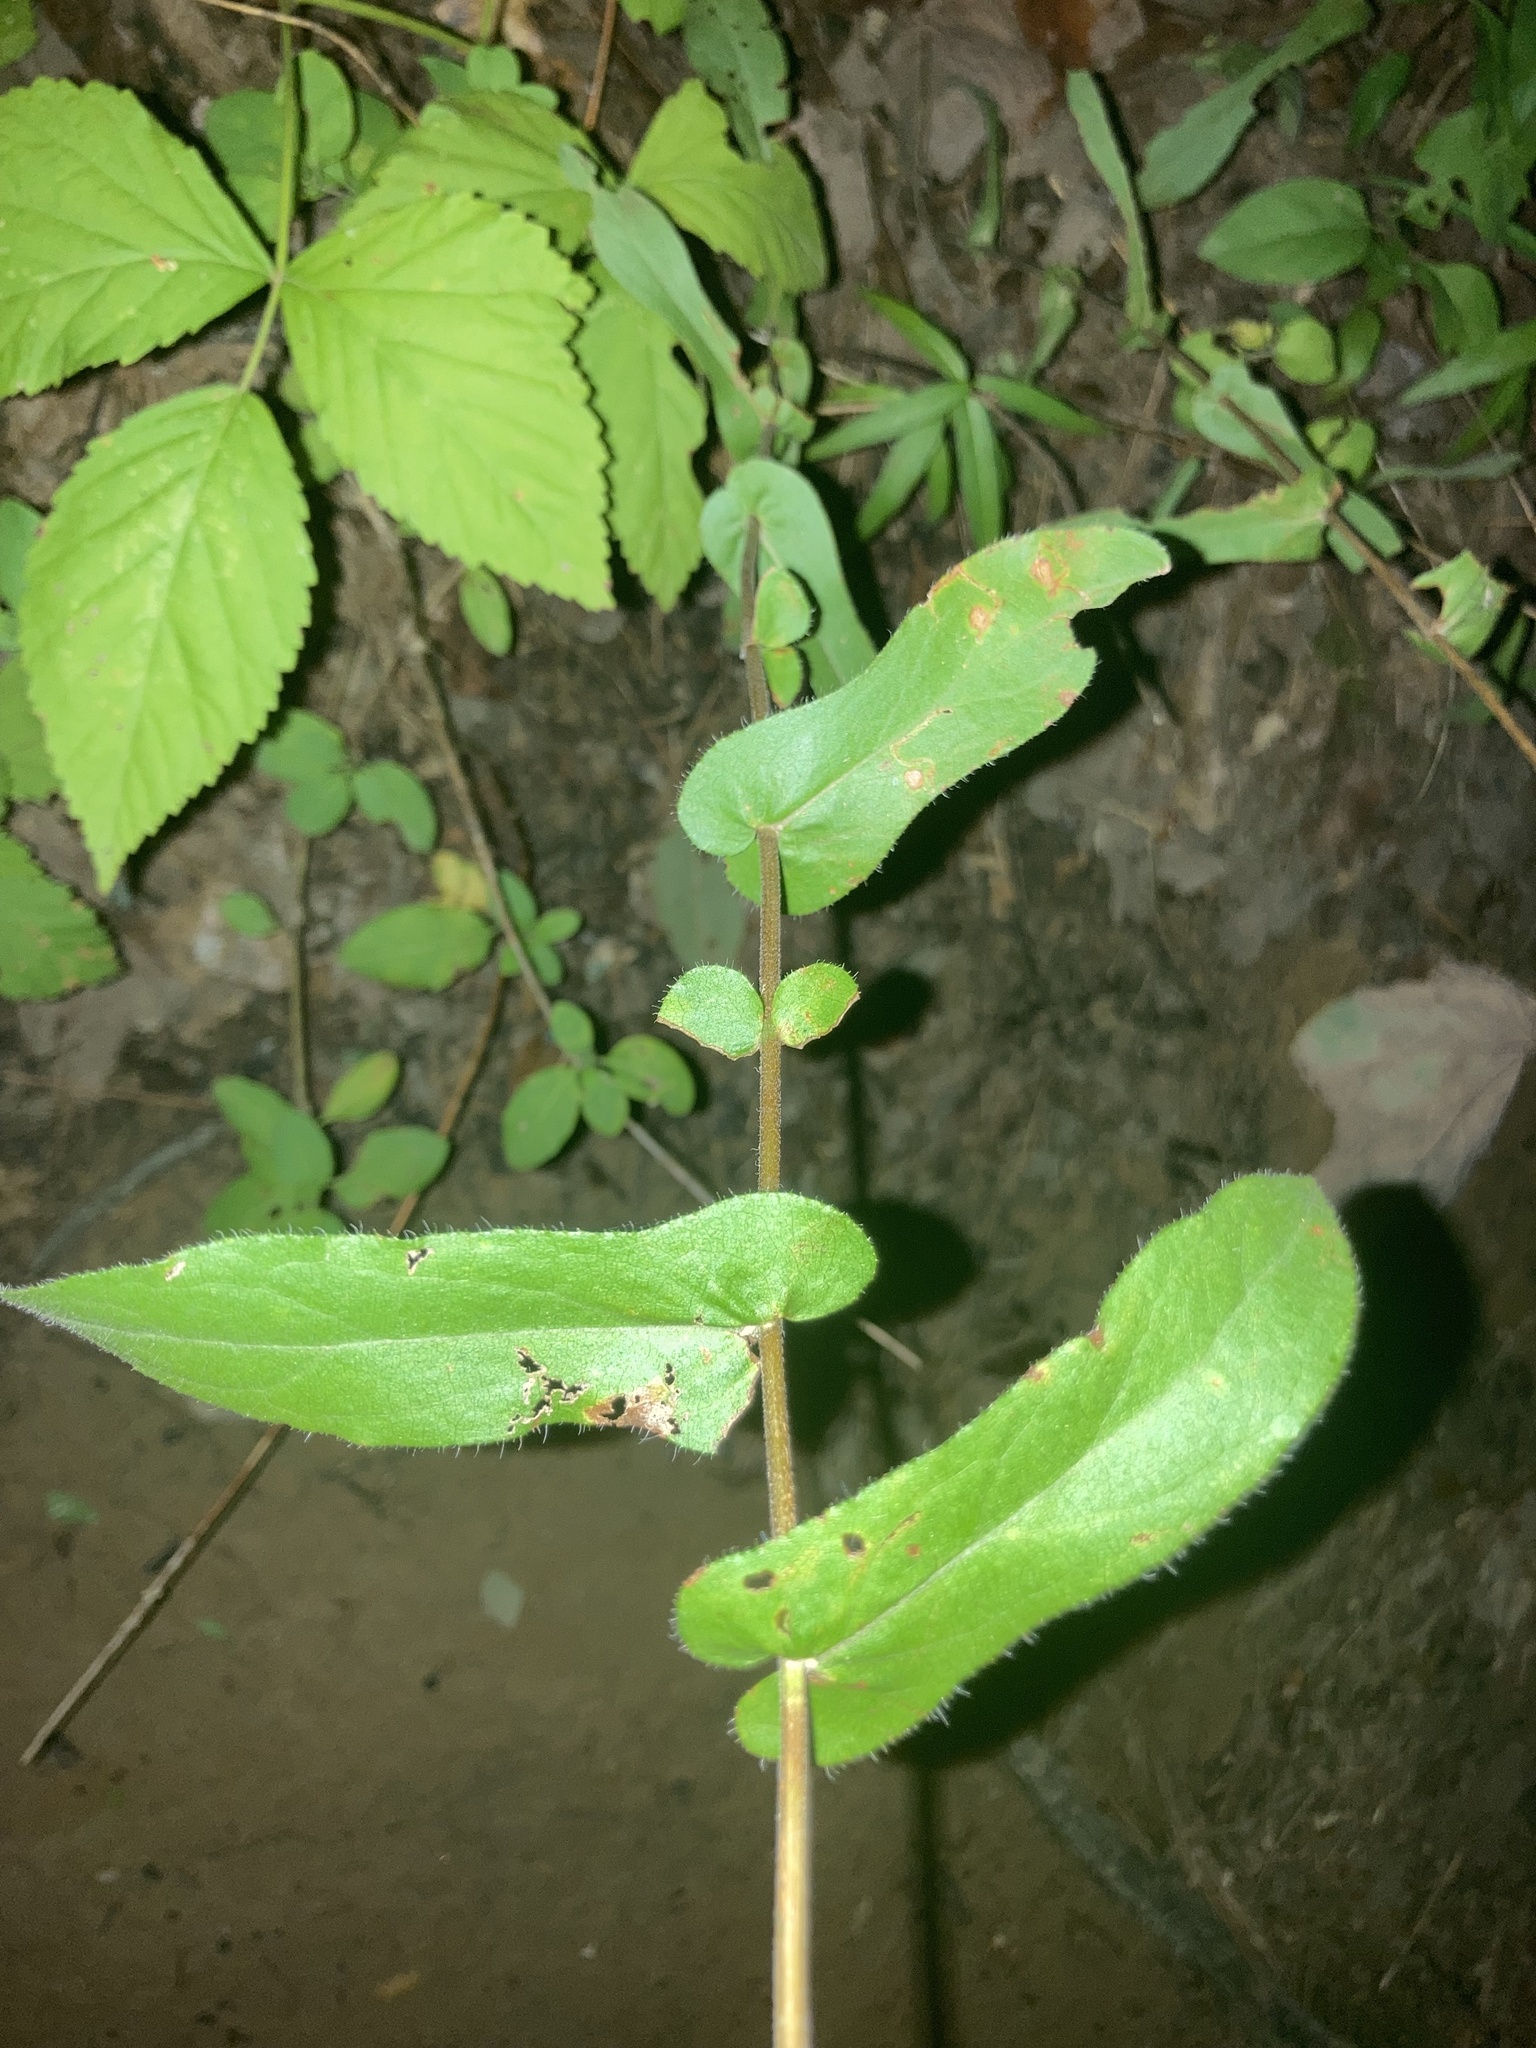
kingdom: Plantae
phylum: Tracheophyta
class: Magnoliopsida
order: Asterales
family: Asteraceae
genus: Symphyotrichum
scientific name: Symphyotrichum patens
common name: Late purple aster
